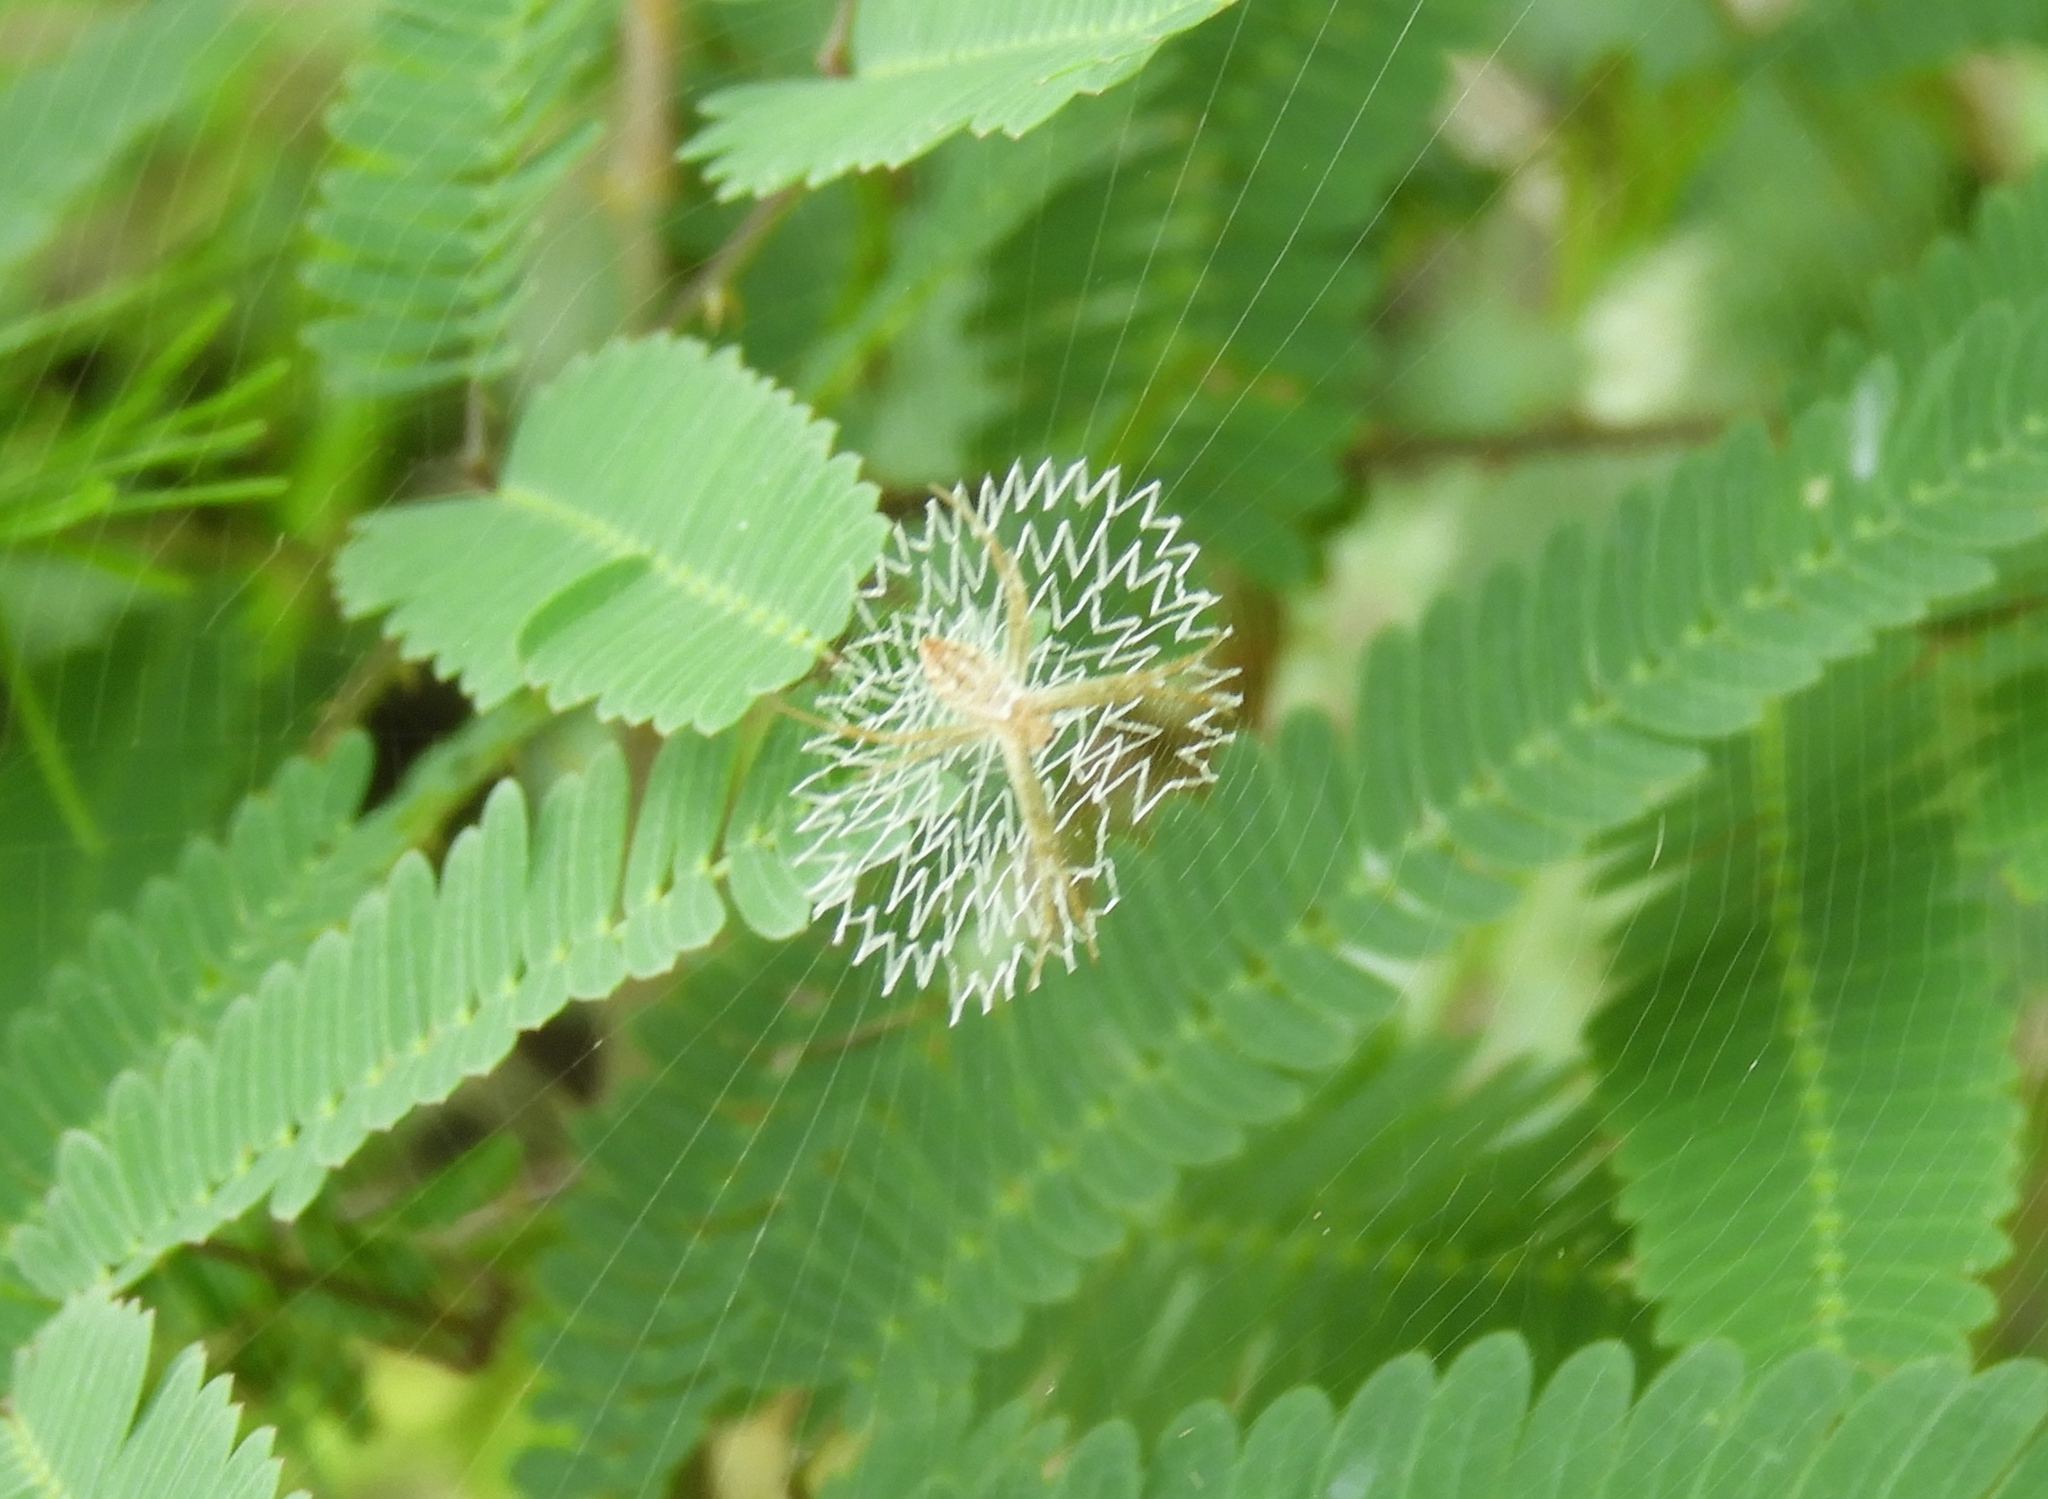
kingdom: Animalia
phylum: Arthropoda
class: Arachnida
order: Araneae
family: Araneidae
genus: Argiope
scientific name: Argiope
